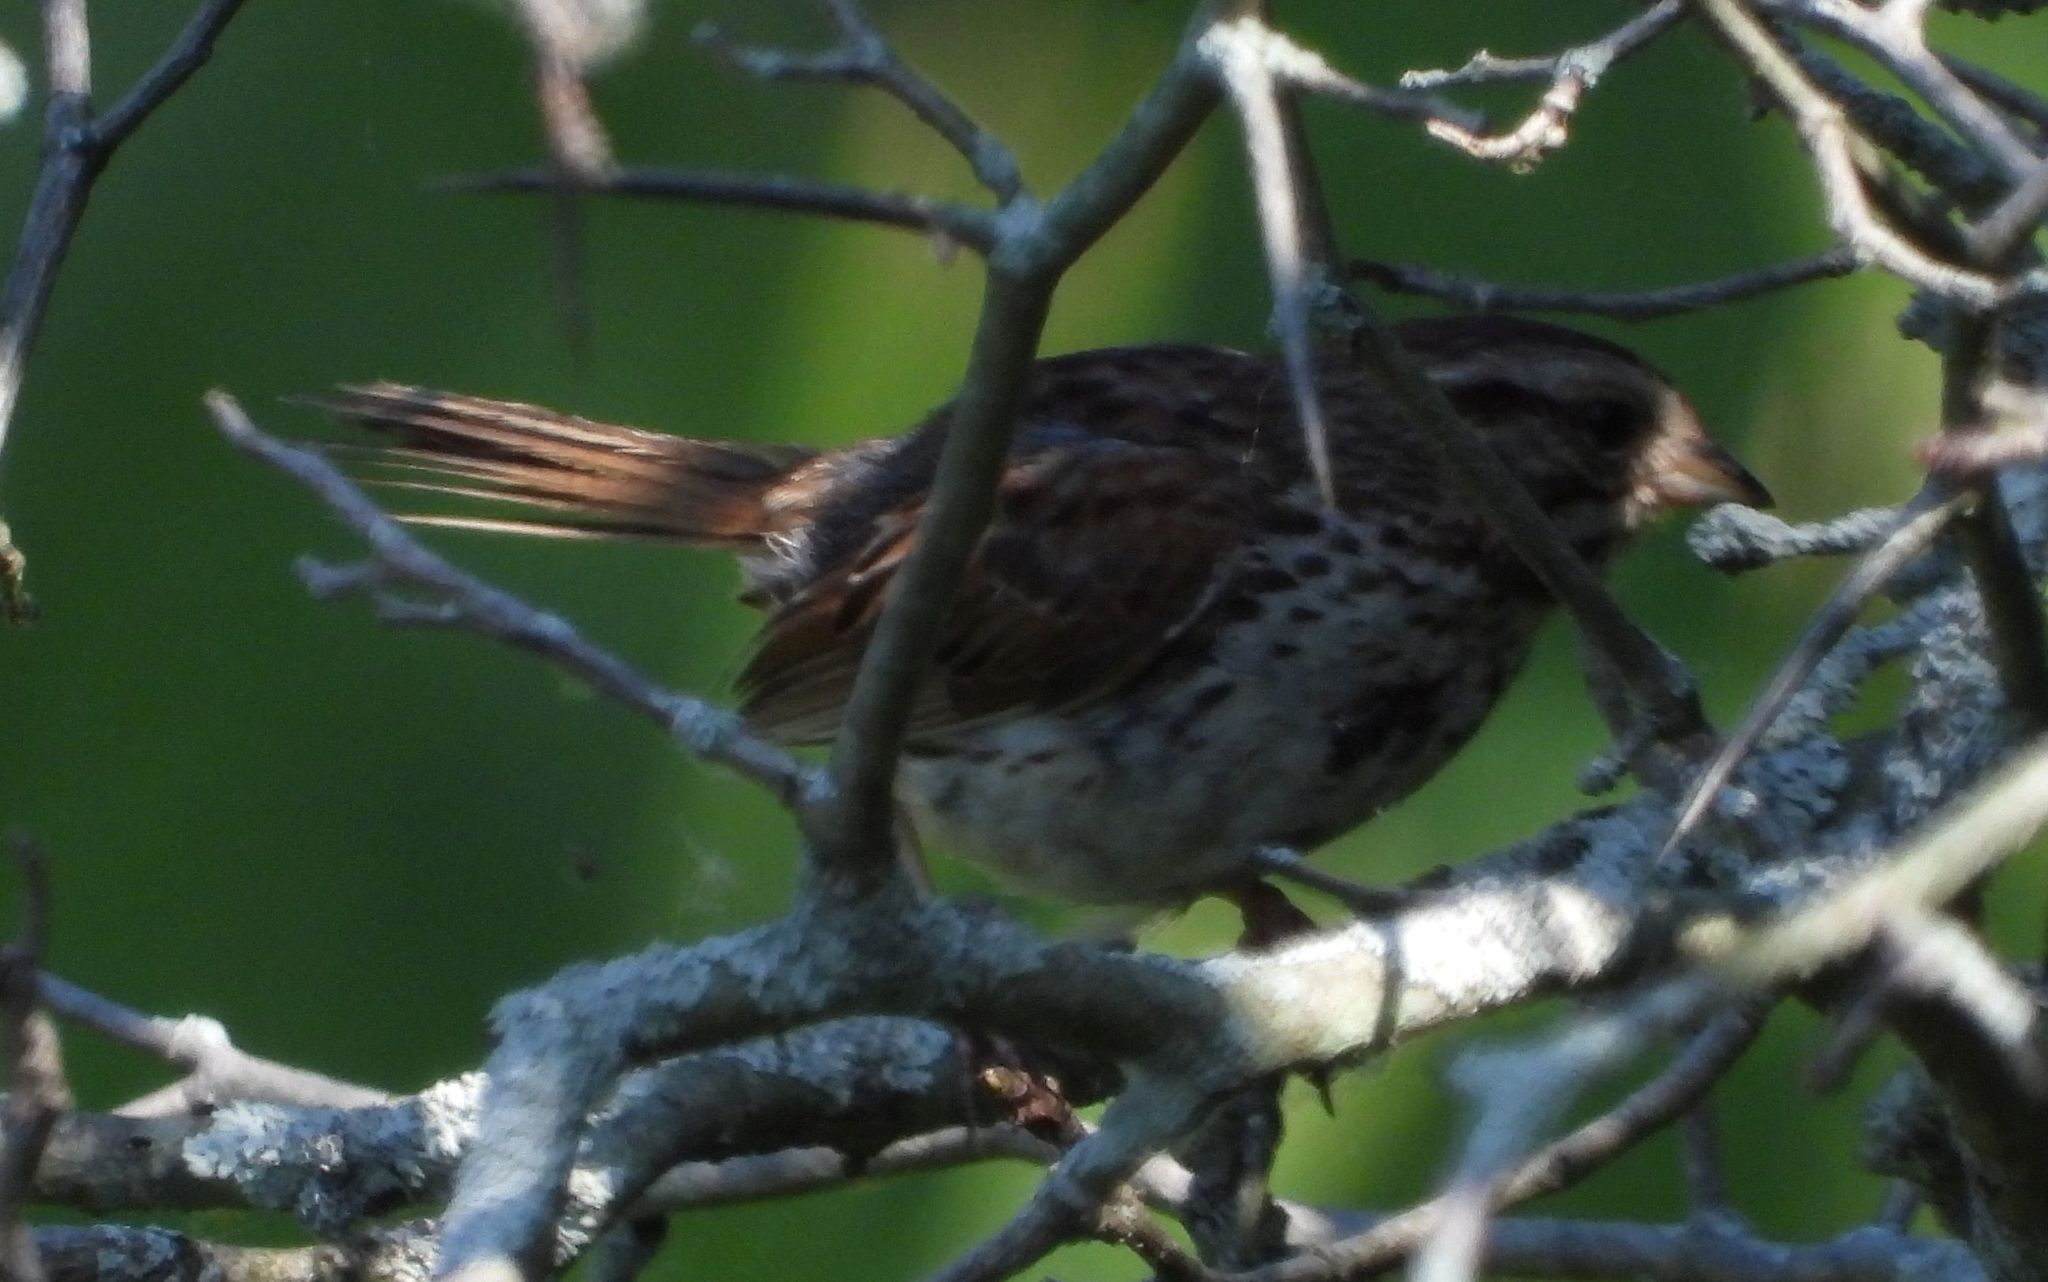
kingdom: Animalia
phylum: Chordata
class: Aves
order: Passeriformes
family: Passerellidae
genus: Melospiza
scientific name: Melospiza melodia
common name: Song sparrow
